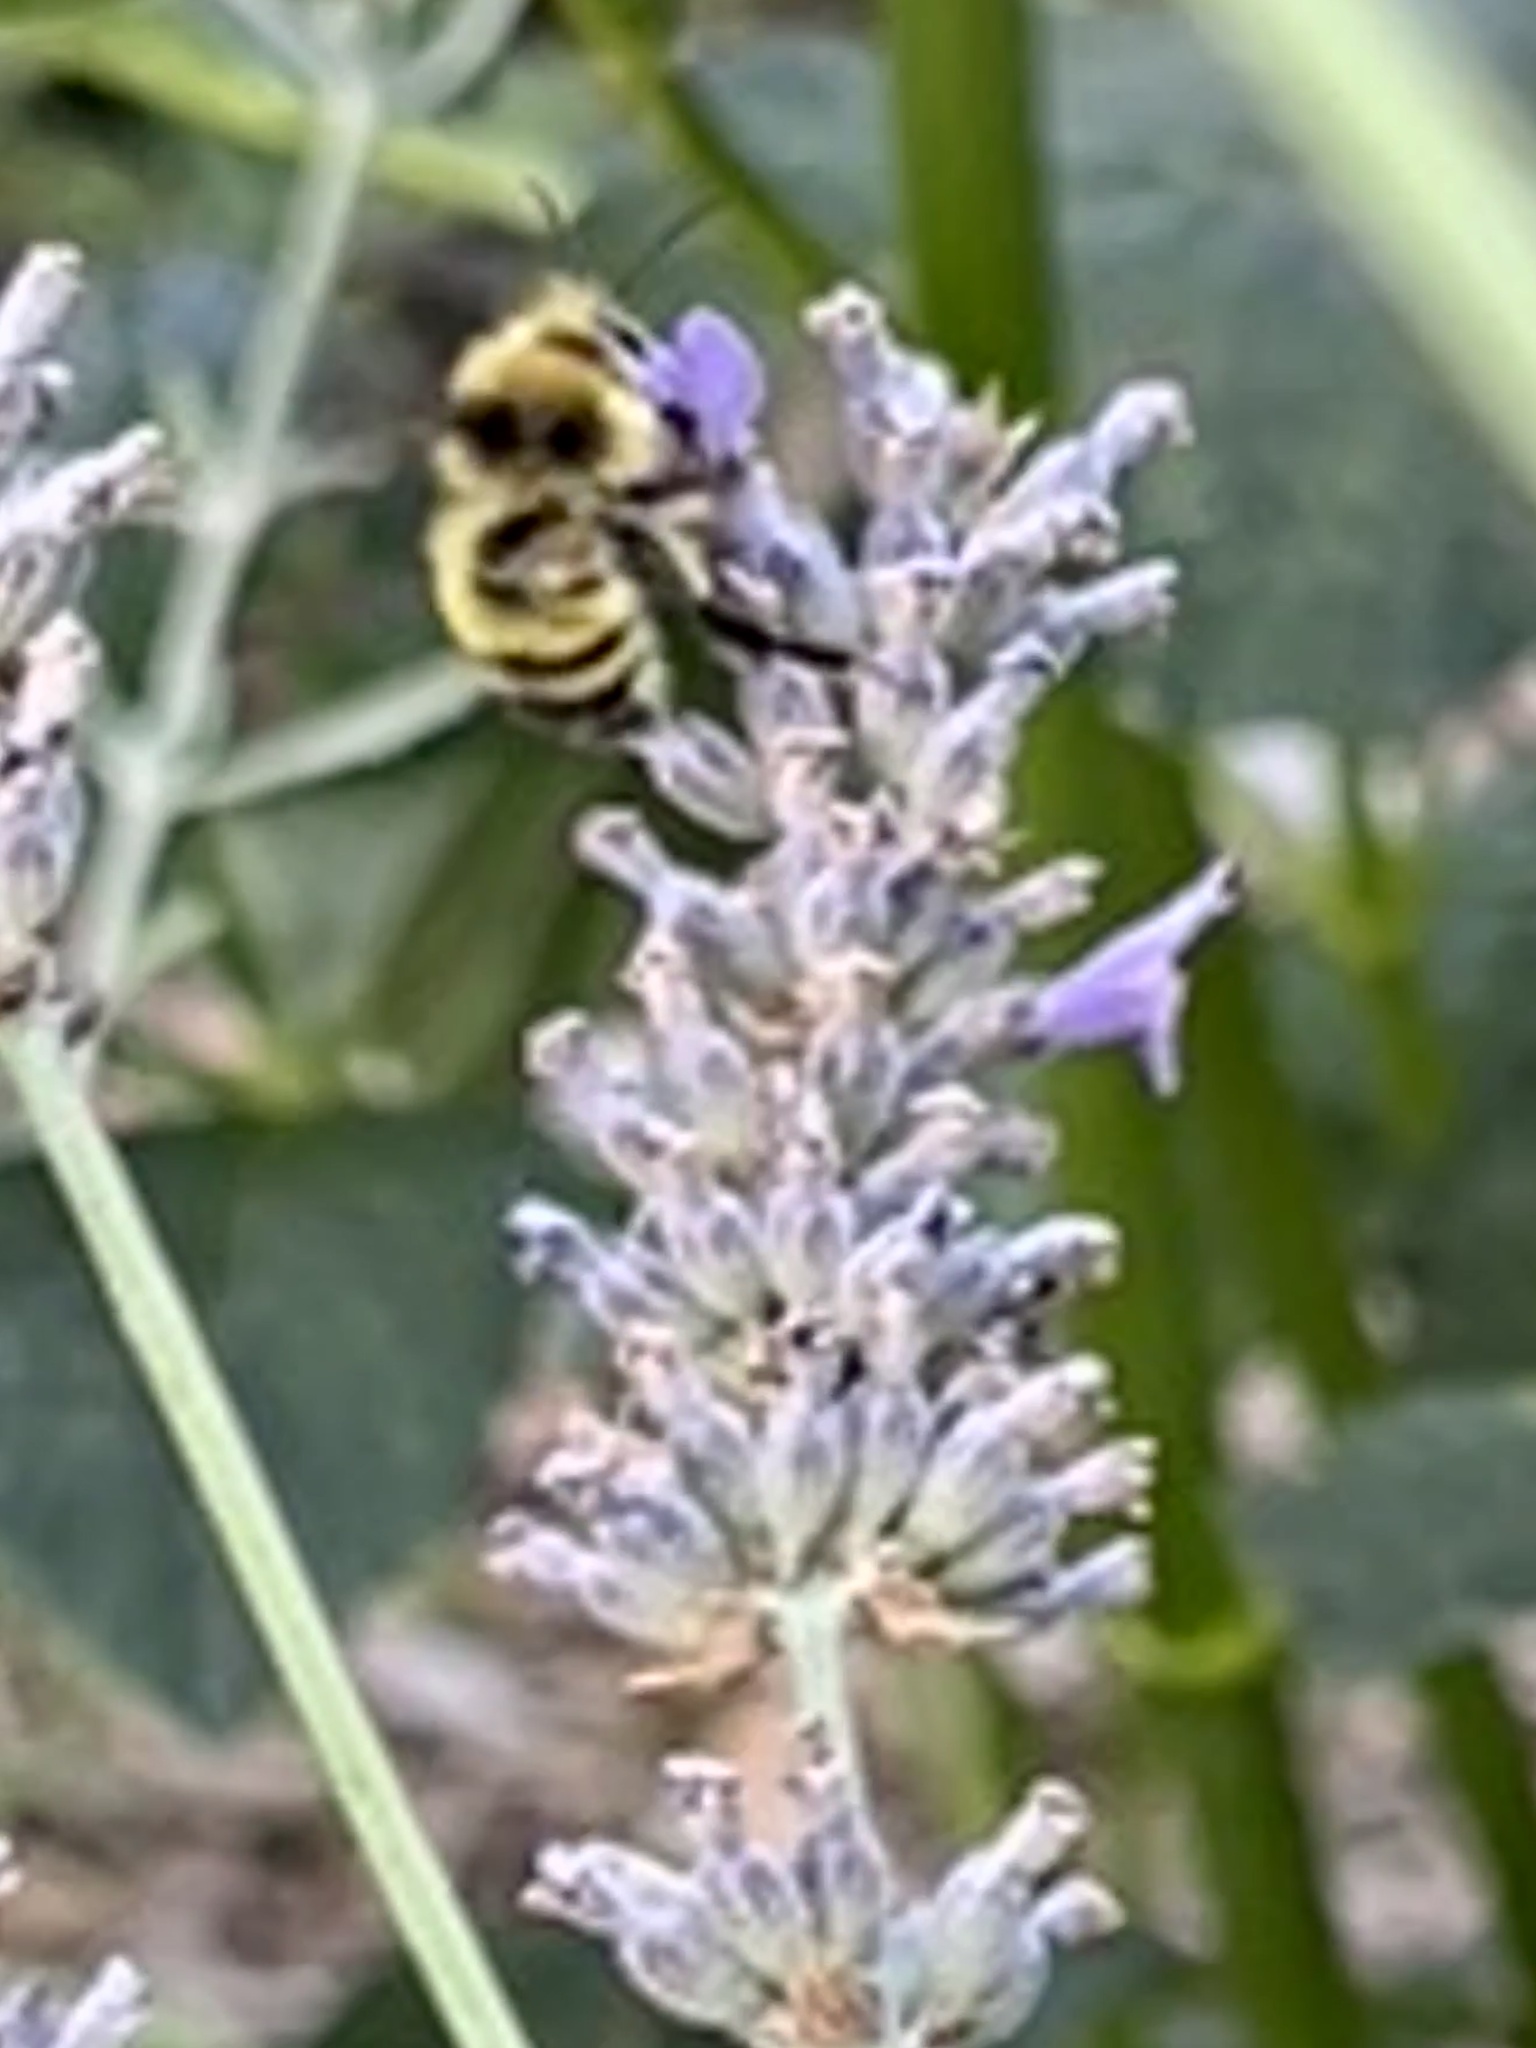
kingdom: Animalia
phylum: Arthropoda
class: Insecta
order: Hymenoptera
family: Apidae
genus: Bombus
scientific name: Bombus flavifrons
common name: Yellow head bumble bee
